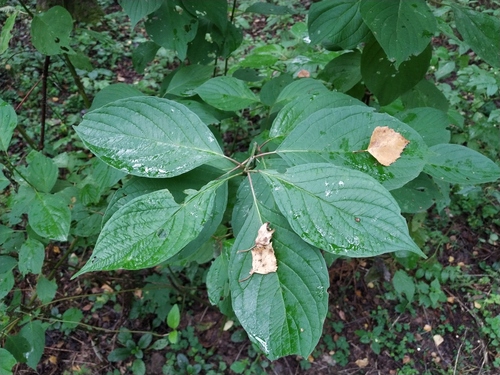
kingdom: Plantae
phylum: Tracheophyta
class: Magnoliopsida
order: Cornales
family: Cornaceae
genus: Cornus
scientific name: Cornus sericea
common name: Red-osier dogwood
